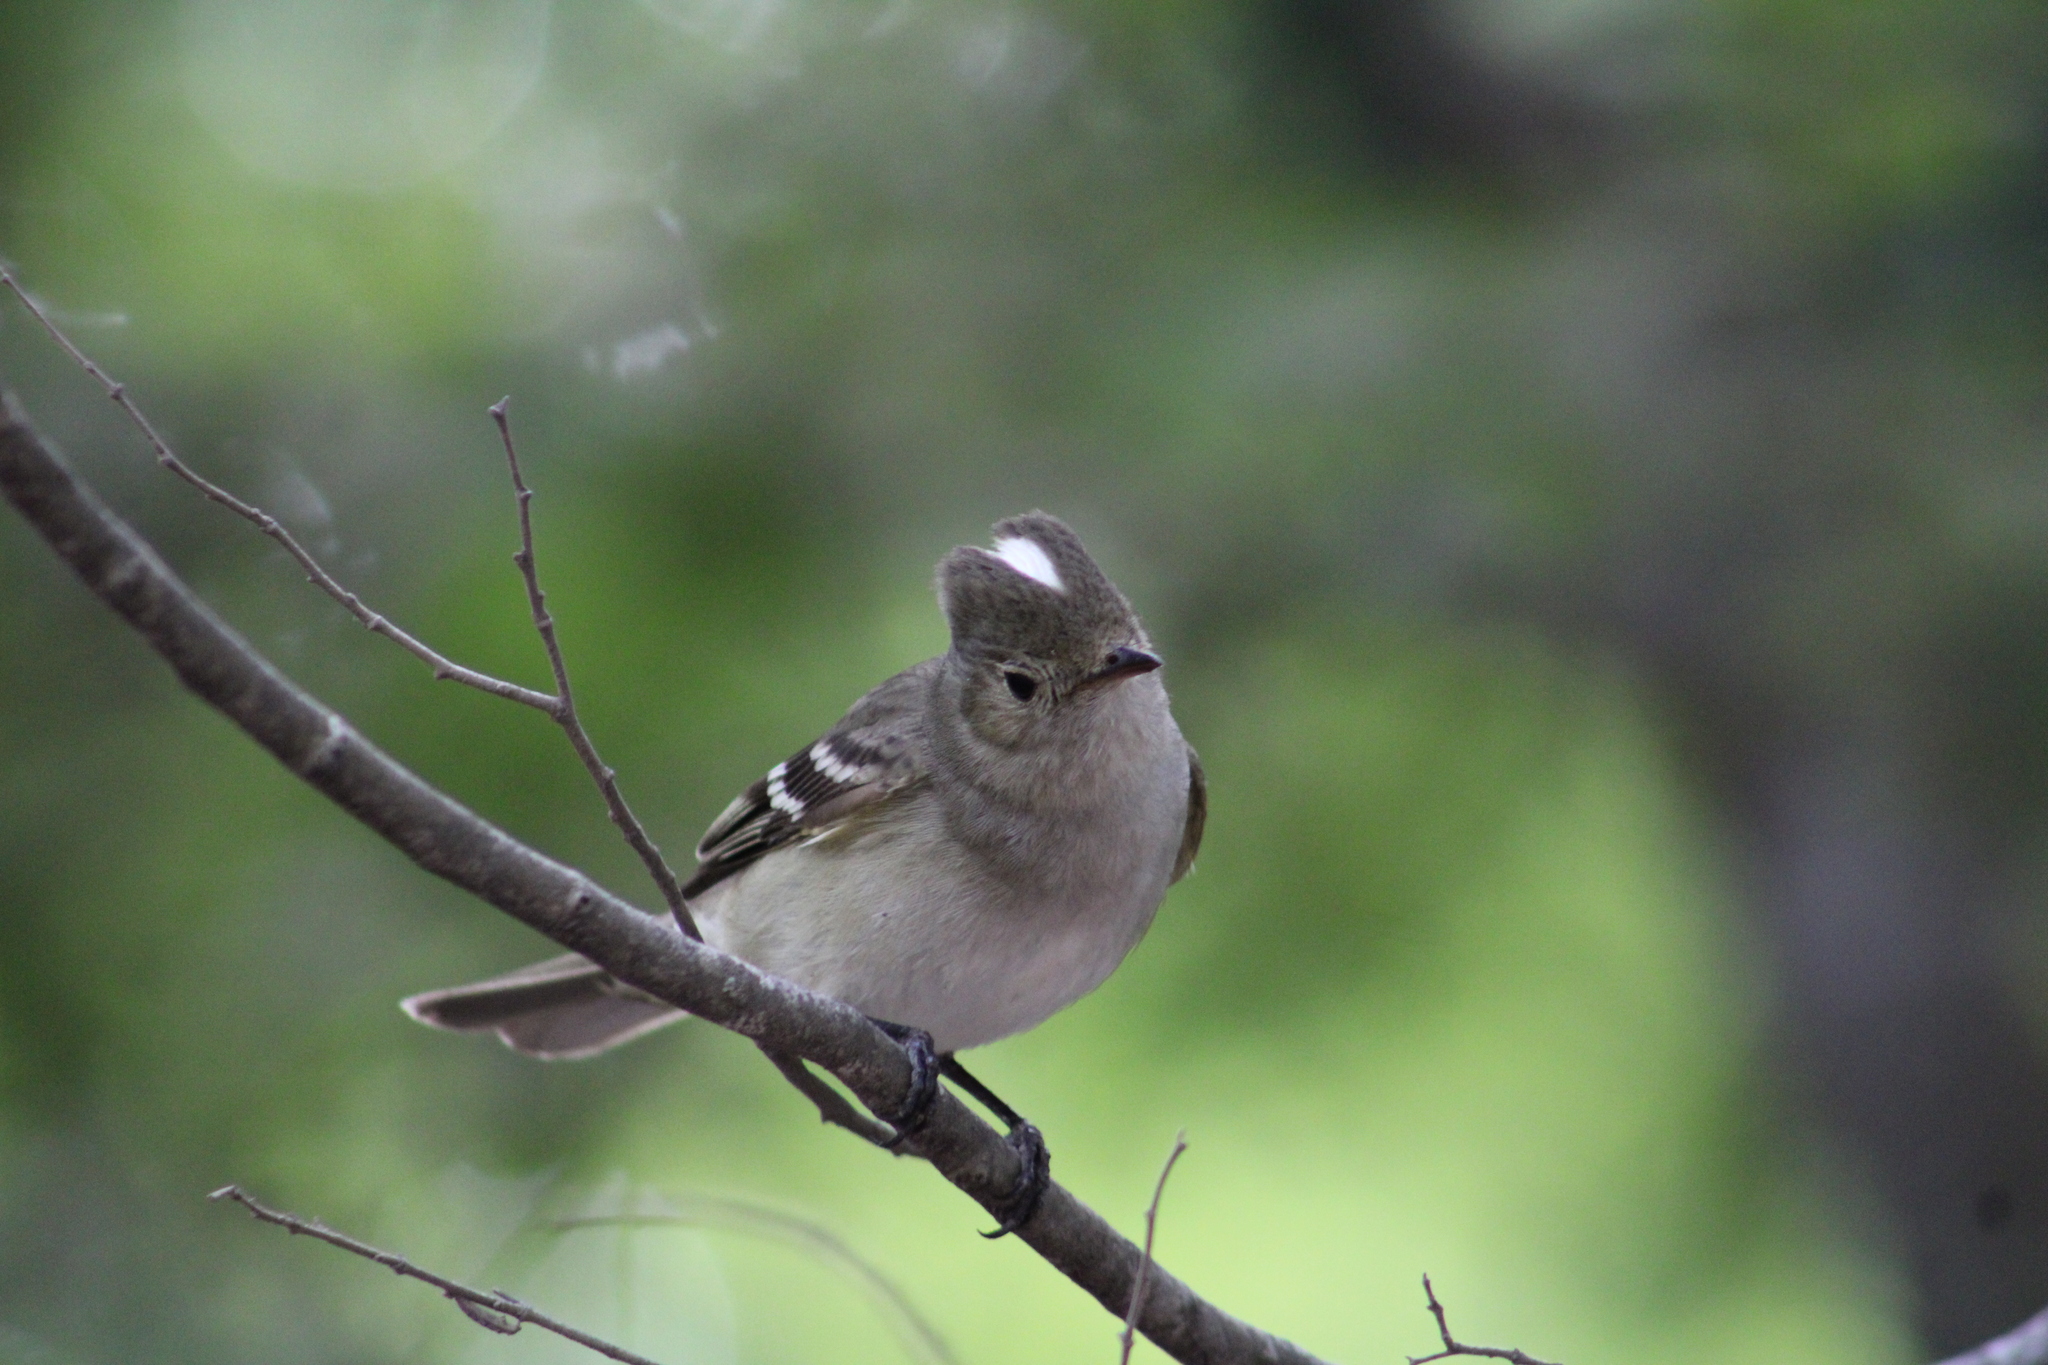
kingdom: Animalia
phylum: Chordata
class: Aves
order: Passeriformes
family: Tyrannidae
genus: Elaenia
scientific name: Elaenia albiceps
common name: White-crested elaenia
